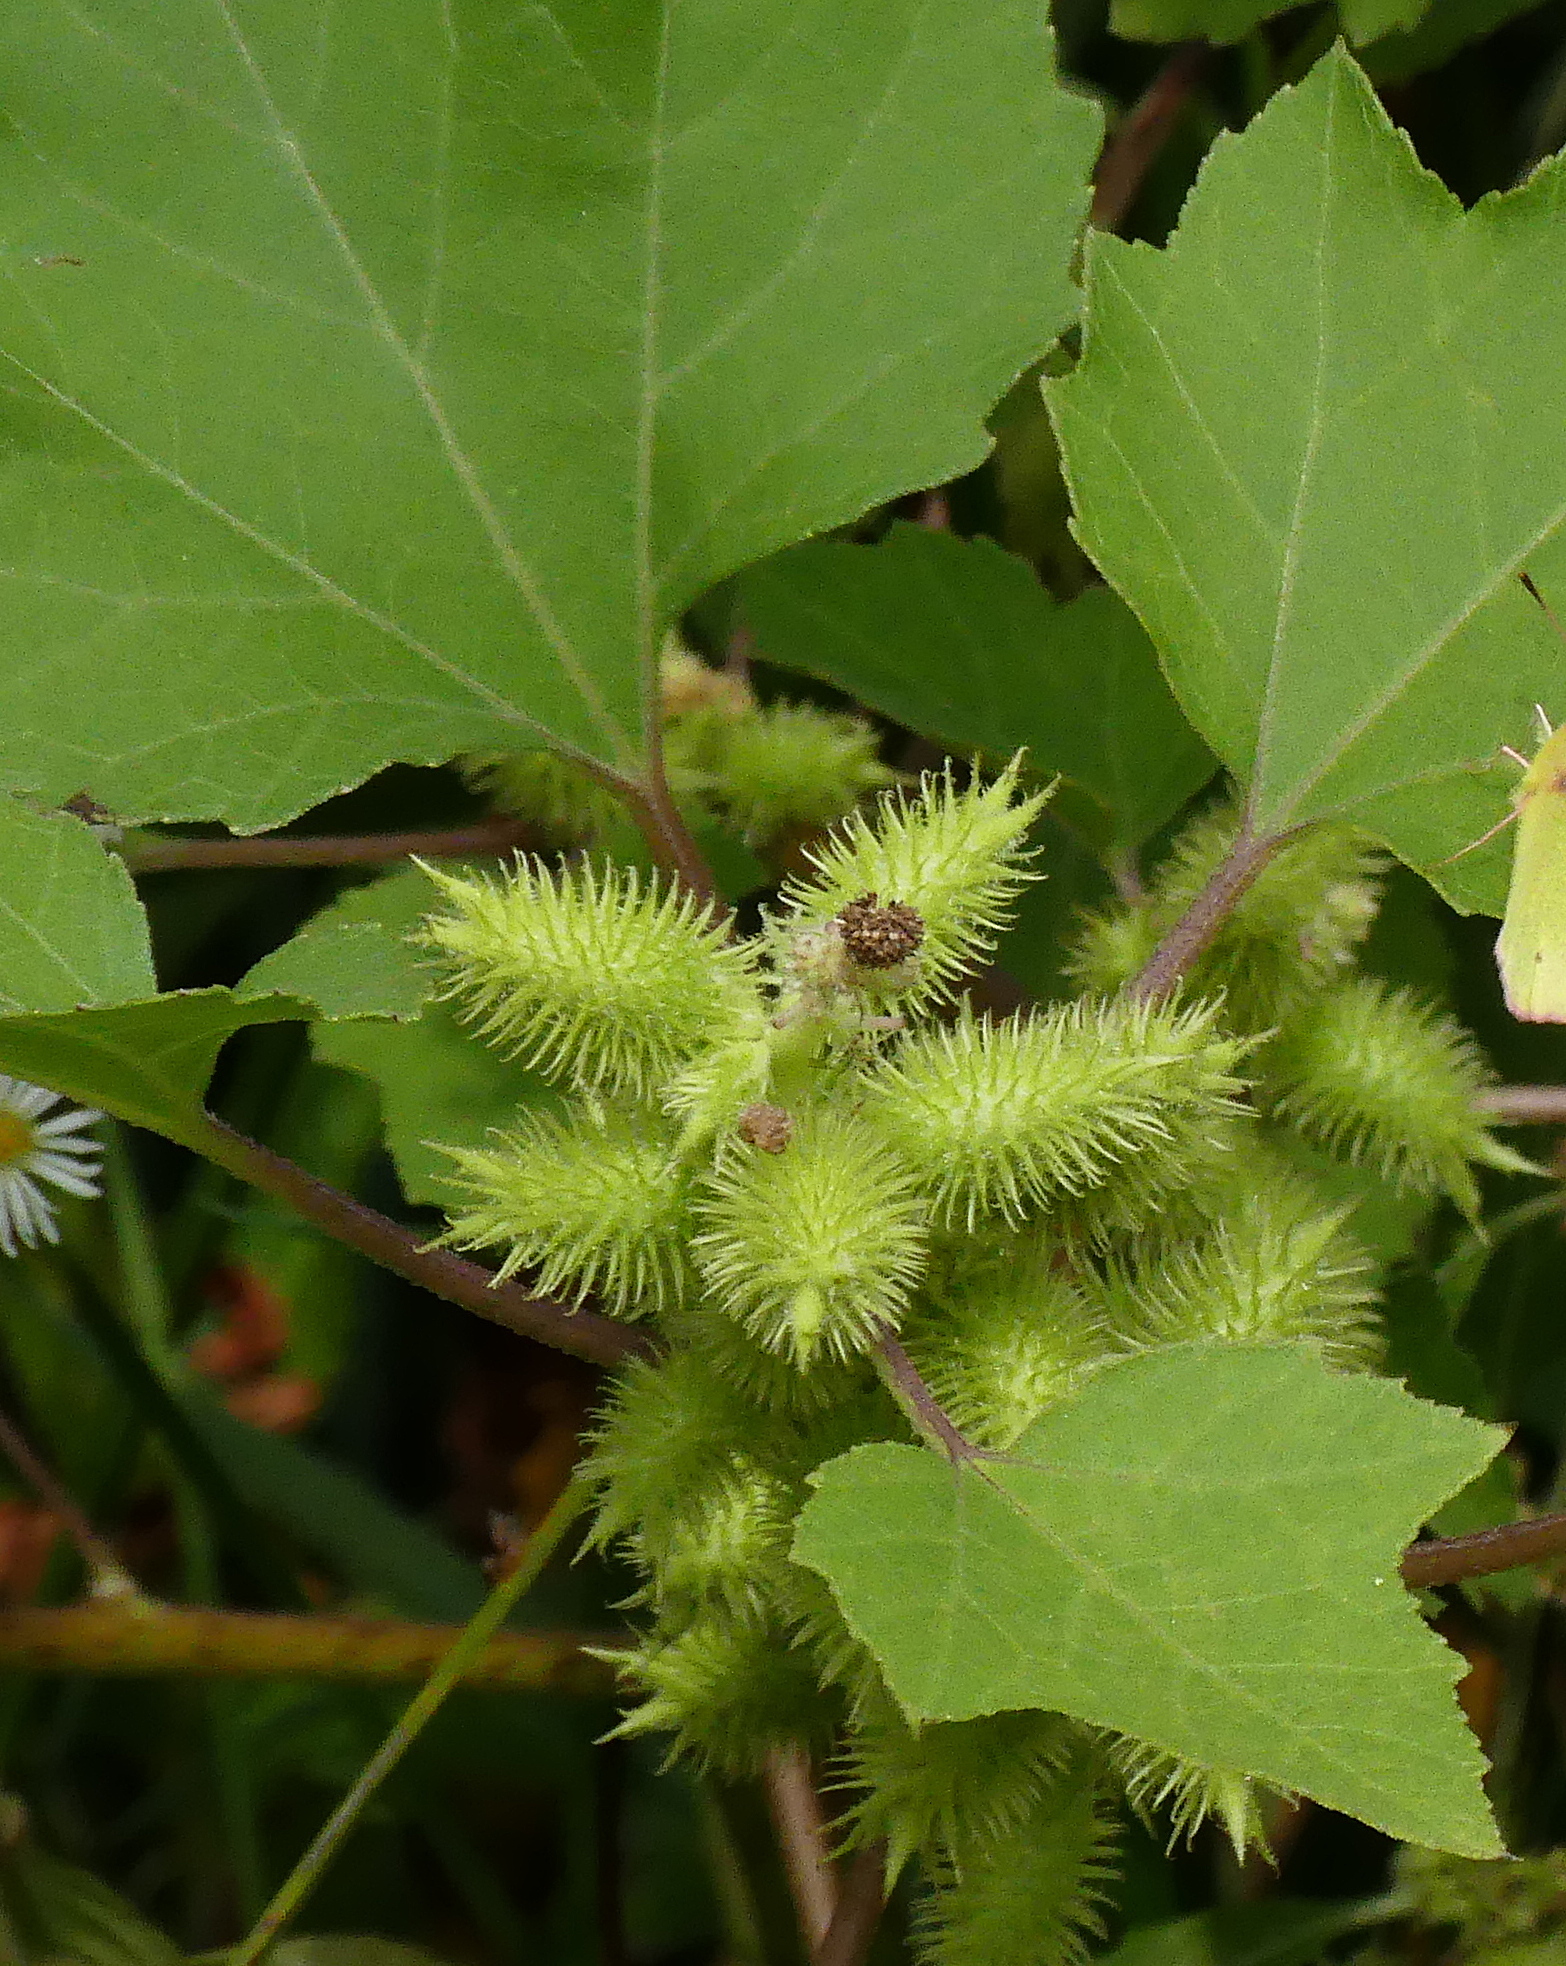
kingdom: Plantae
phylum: Tracheophyta
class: Magnoliopsida
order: Asterales
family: Asteraceae
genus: Xanthium
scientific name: Xanthium strumarium
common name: Rough cocklebur
